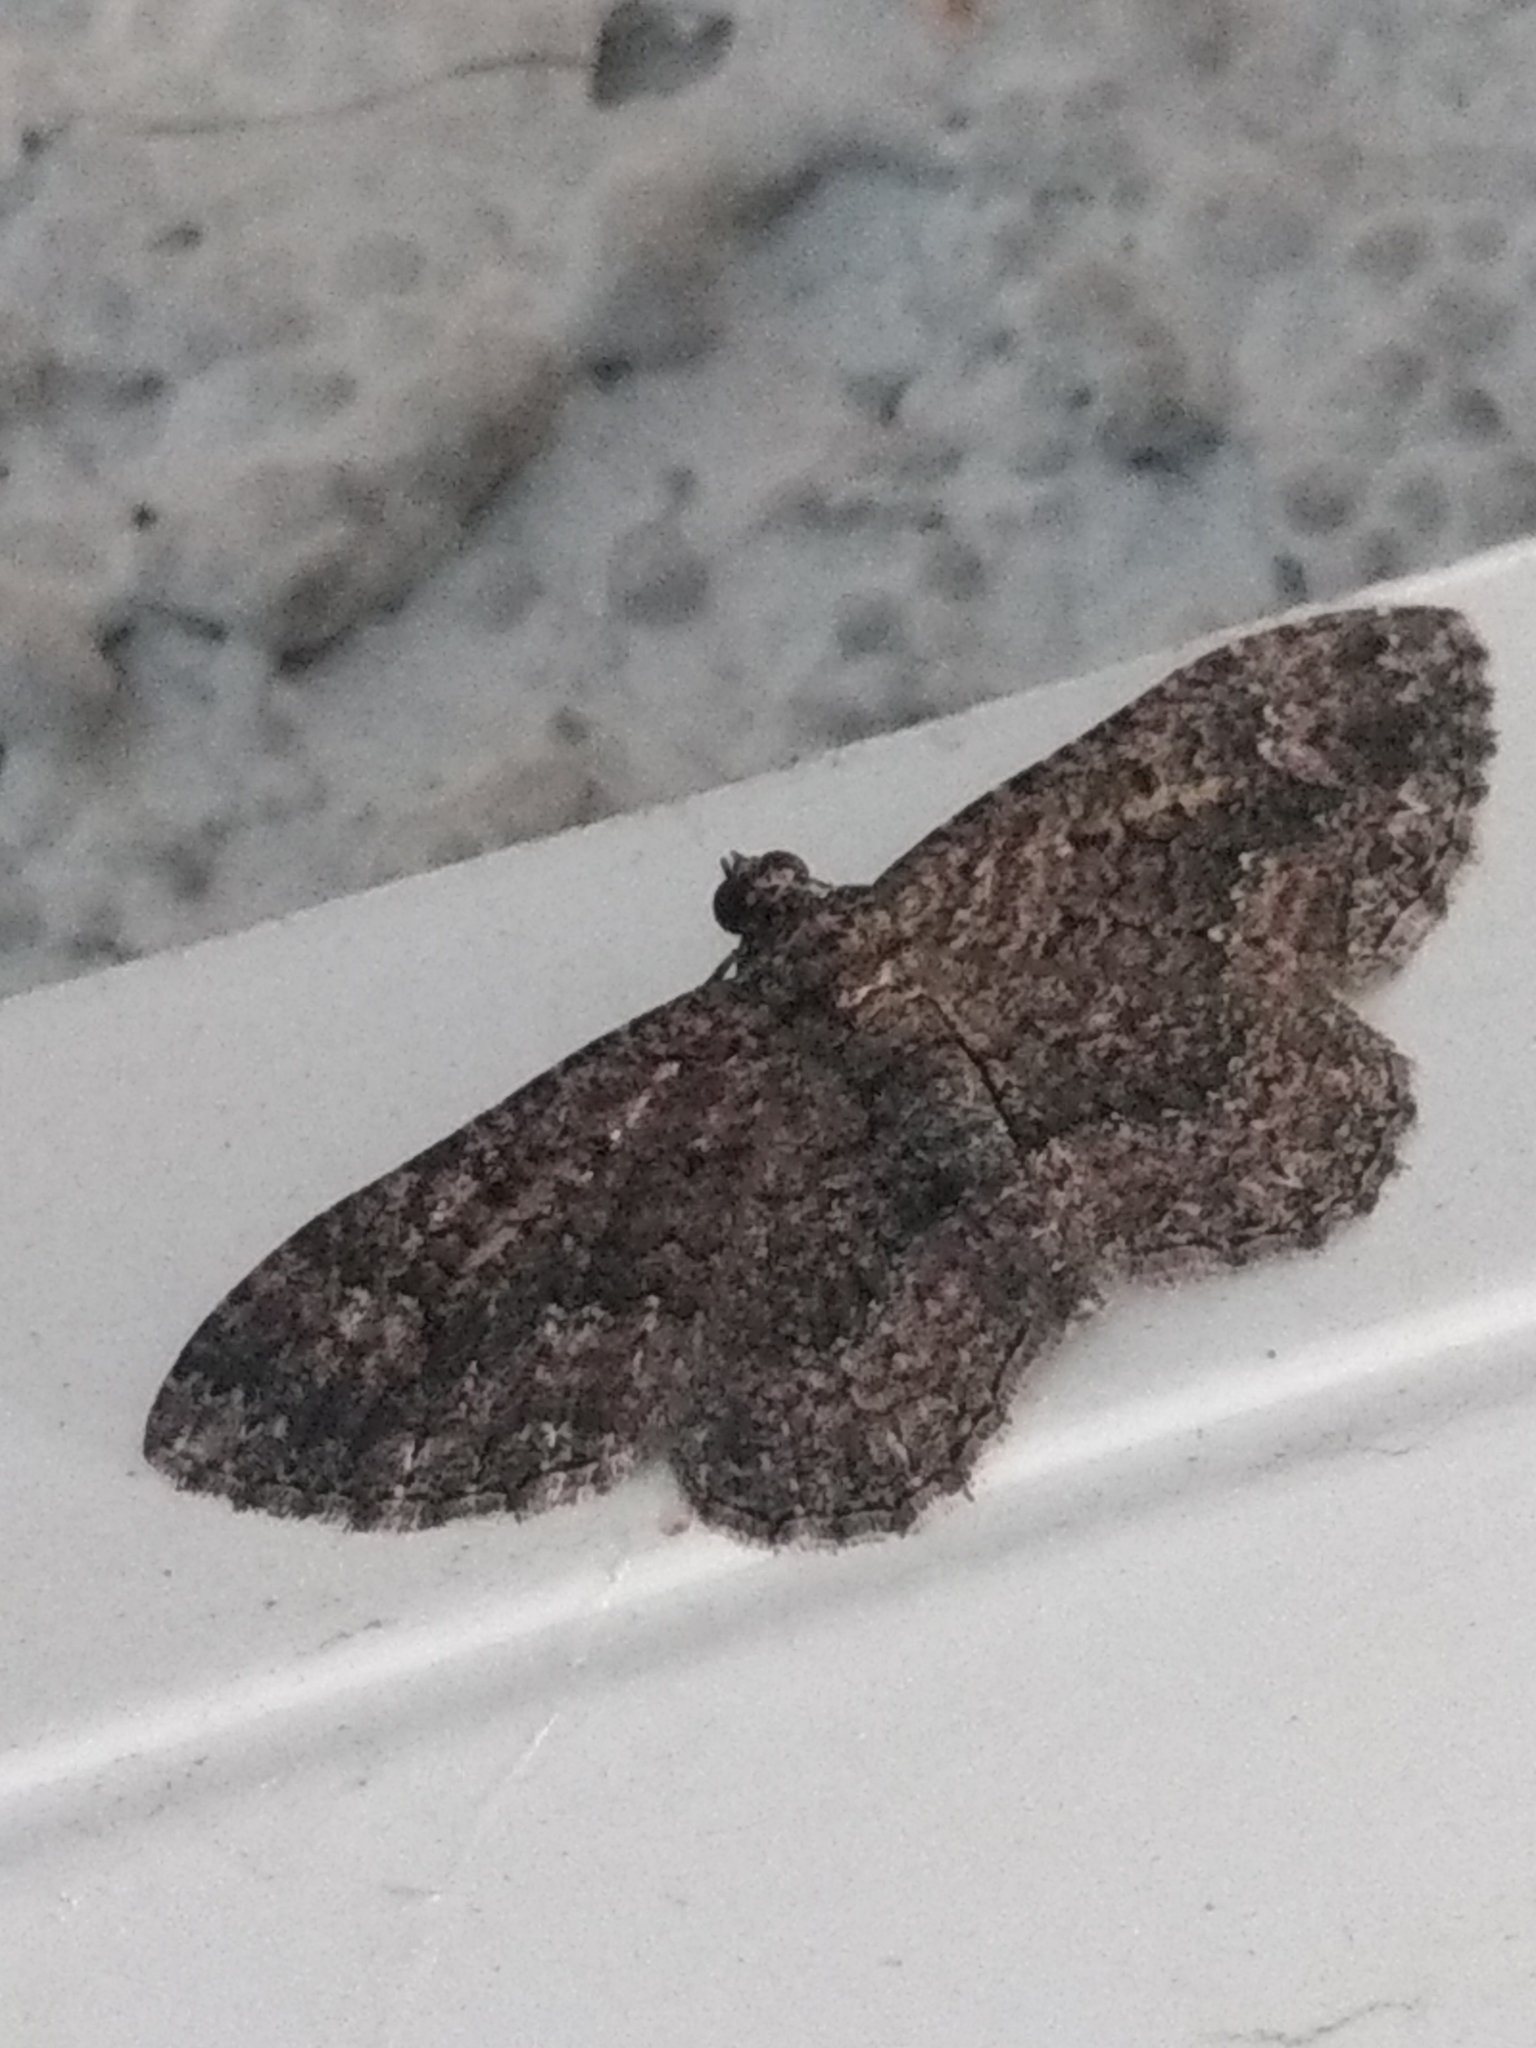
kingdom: Animalia
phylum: Arthropoda
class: Insecta
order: Lepidoptera
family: Geometridae
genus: Disclisioprocta
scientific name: Disclisioprocta stellata
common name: Somber carpet
